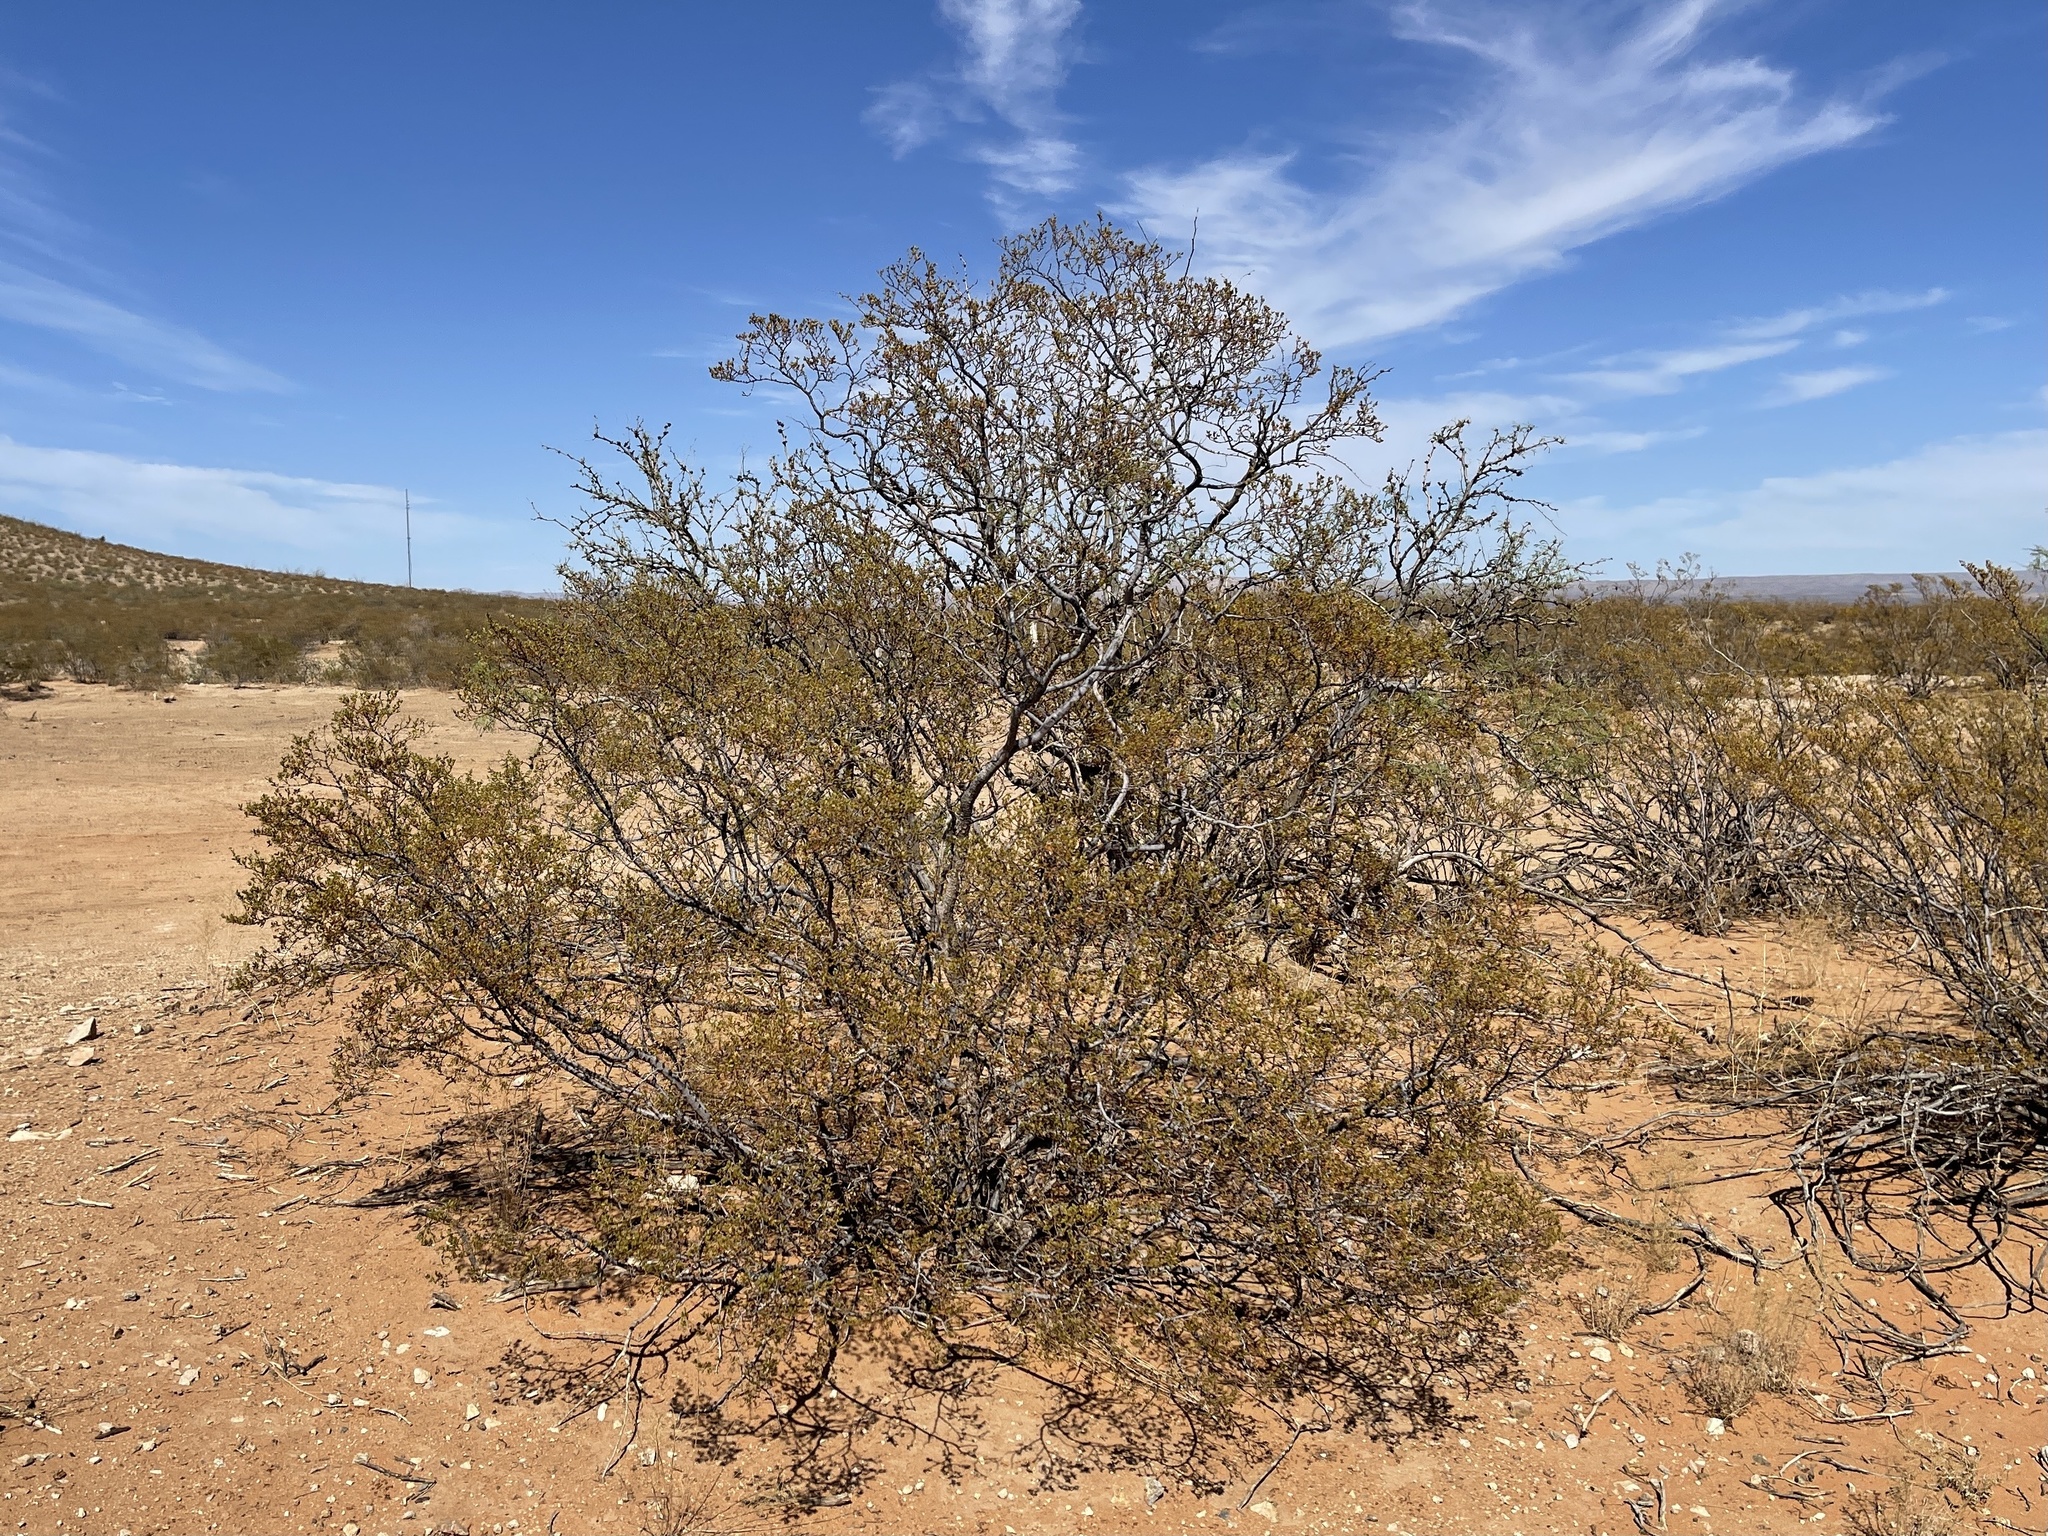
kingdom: Plantae
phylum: Tracheophyta
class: Magnoliopsida
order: Zygophyllales
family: Zygophyllaceae
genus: Larrea
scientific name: Larrea tridentata
